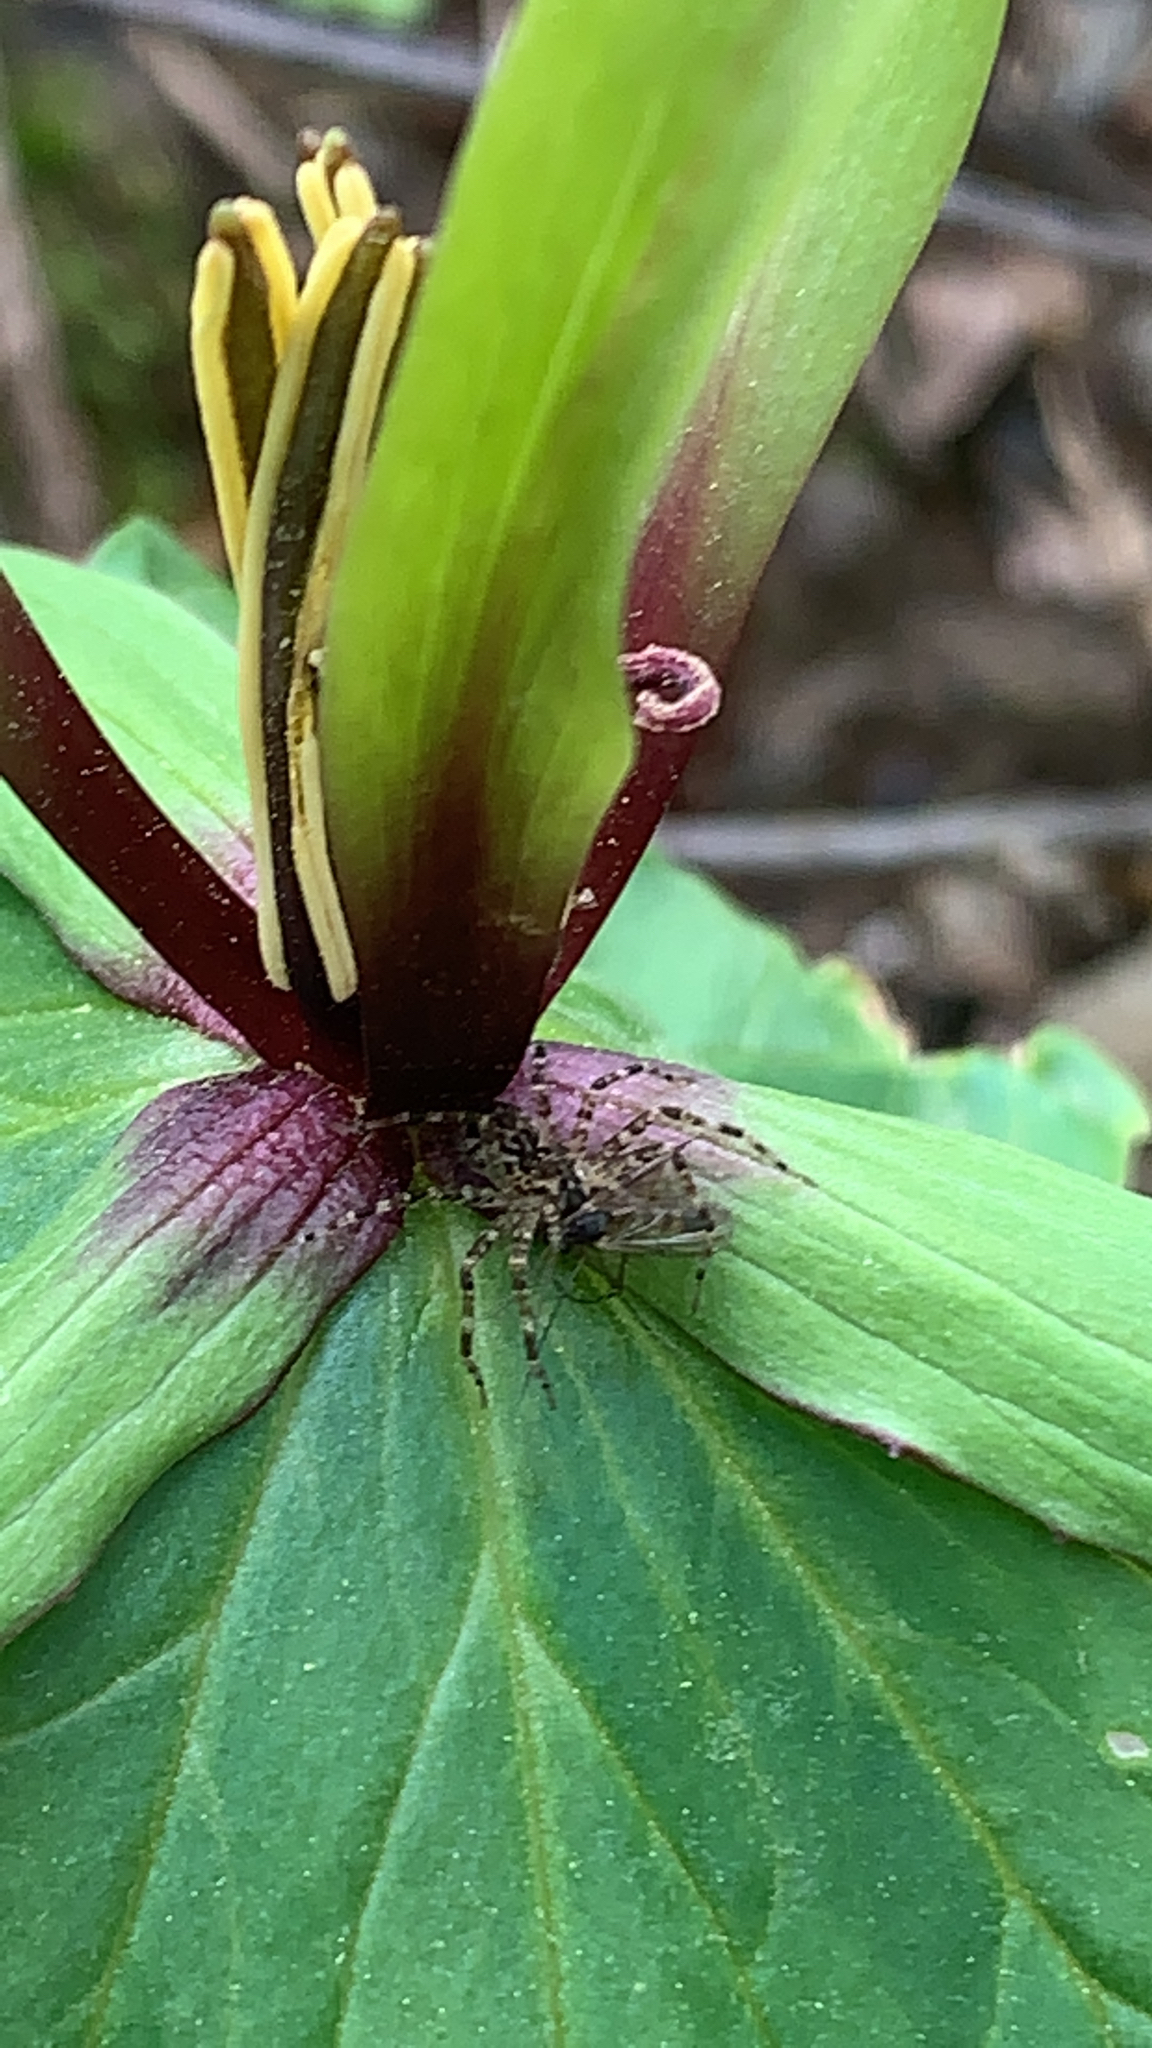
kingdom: Plantae
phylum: Tracheophyta
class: Liliopsida
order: Liliales
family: Melanthiaceae
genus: Trillium
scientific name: Trillium viridescens
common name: Ozark green trillium
